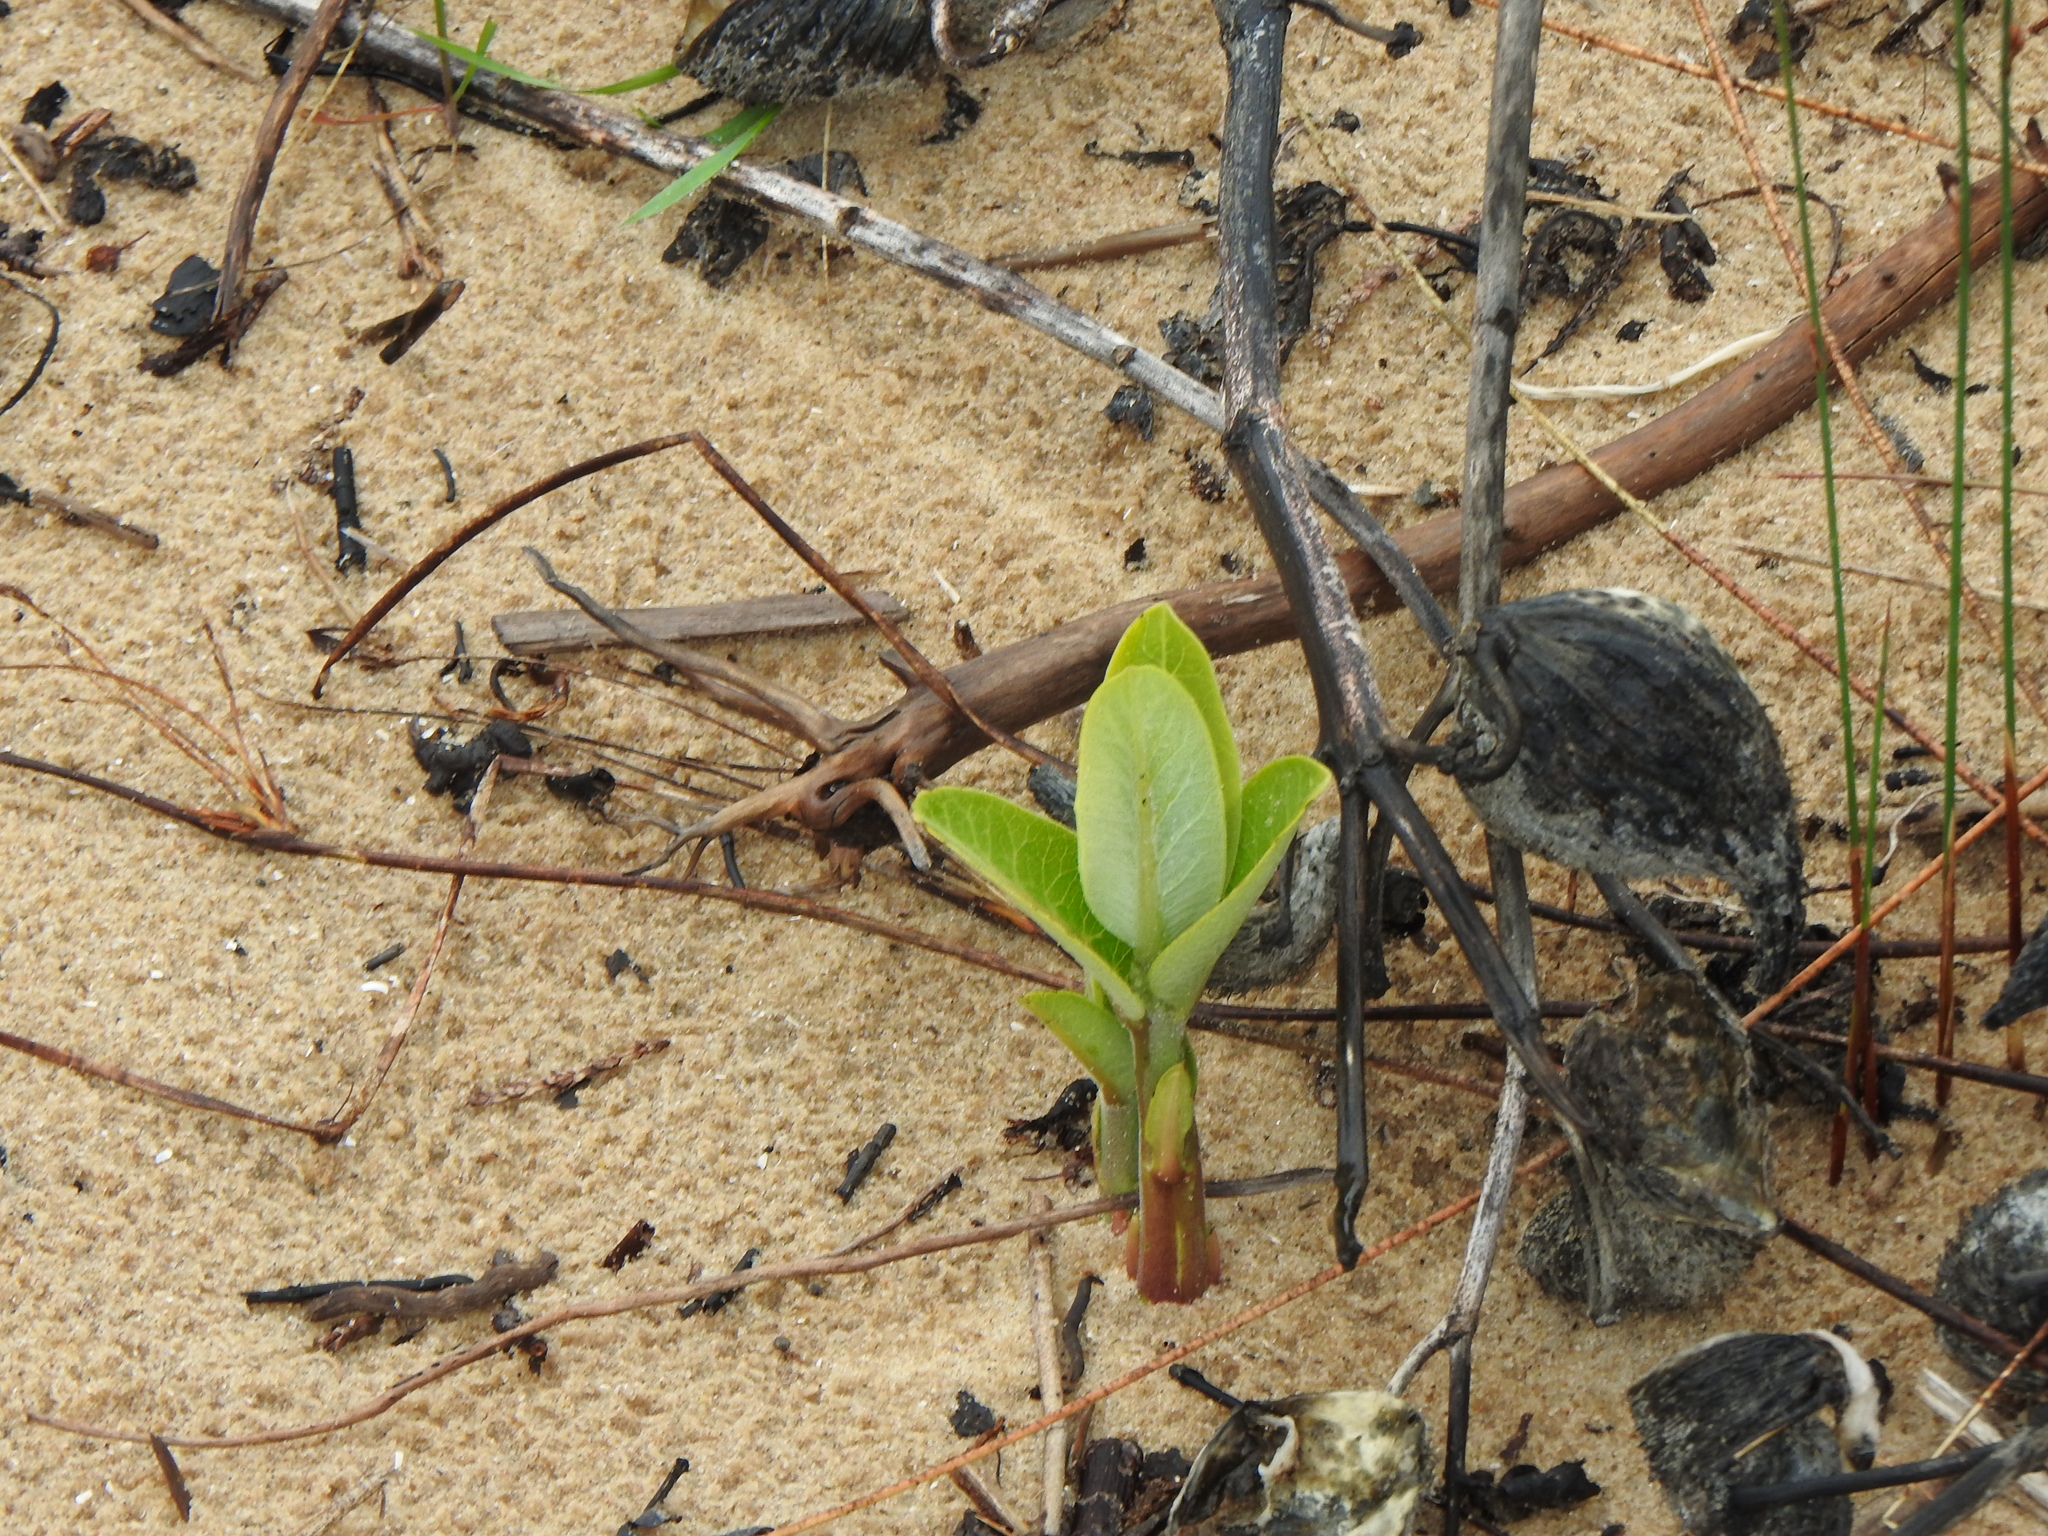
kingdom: Plantae
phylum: Tracheophyta
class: Magnoliopsida
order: Gentianales
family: Apocynaceae
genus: Asclepias
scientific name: Asclepias syriaca
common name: Common milkweed
